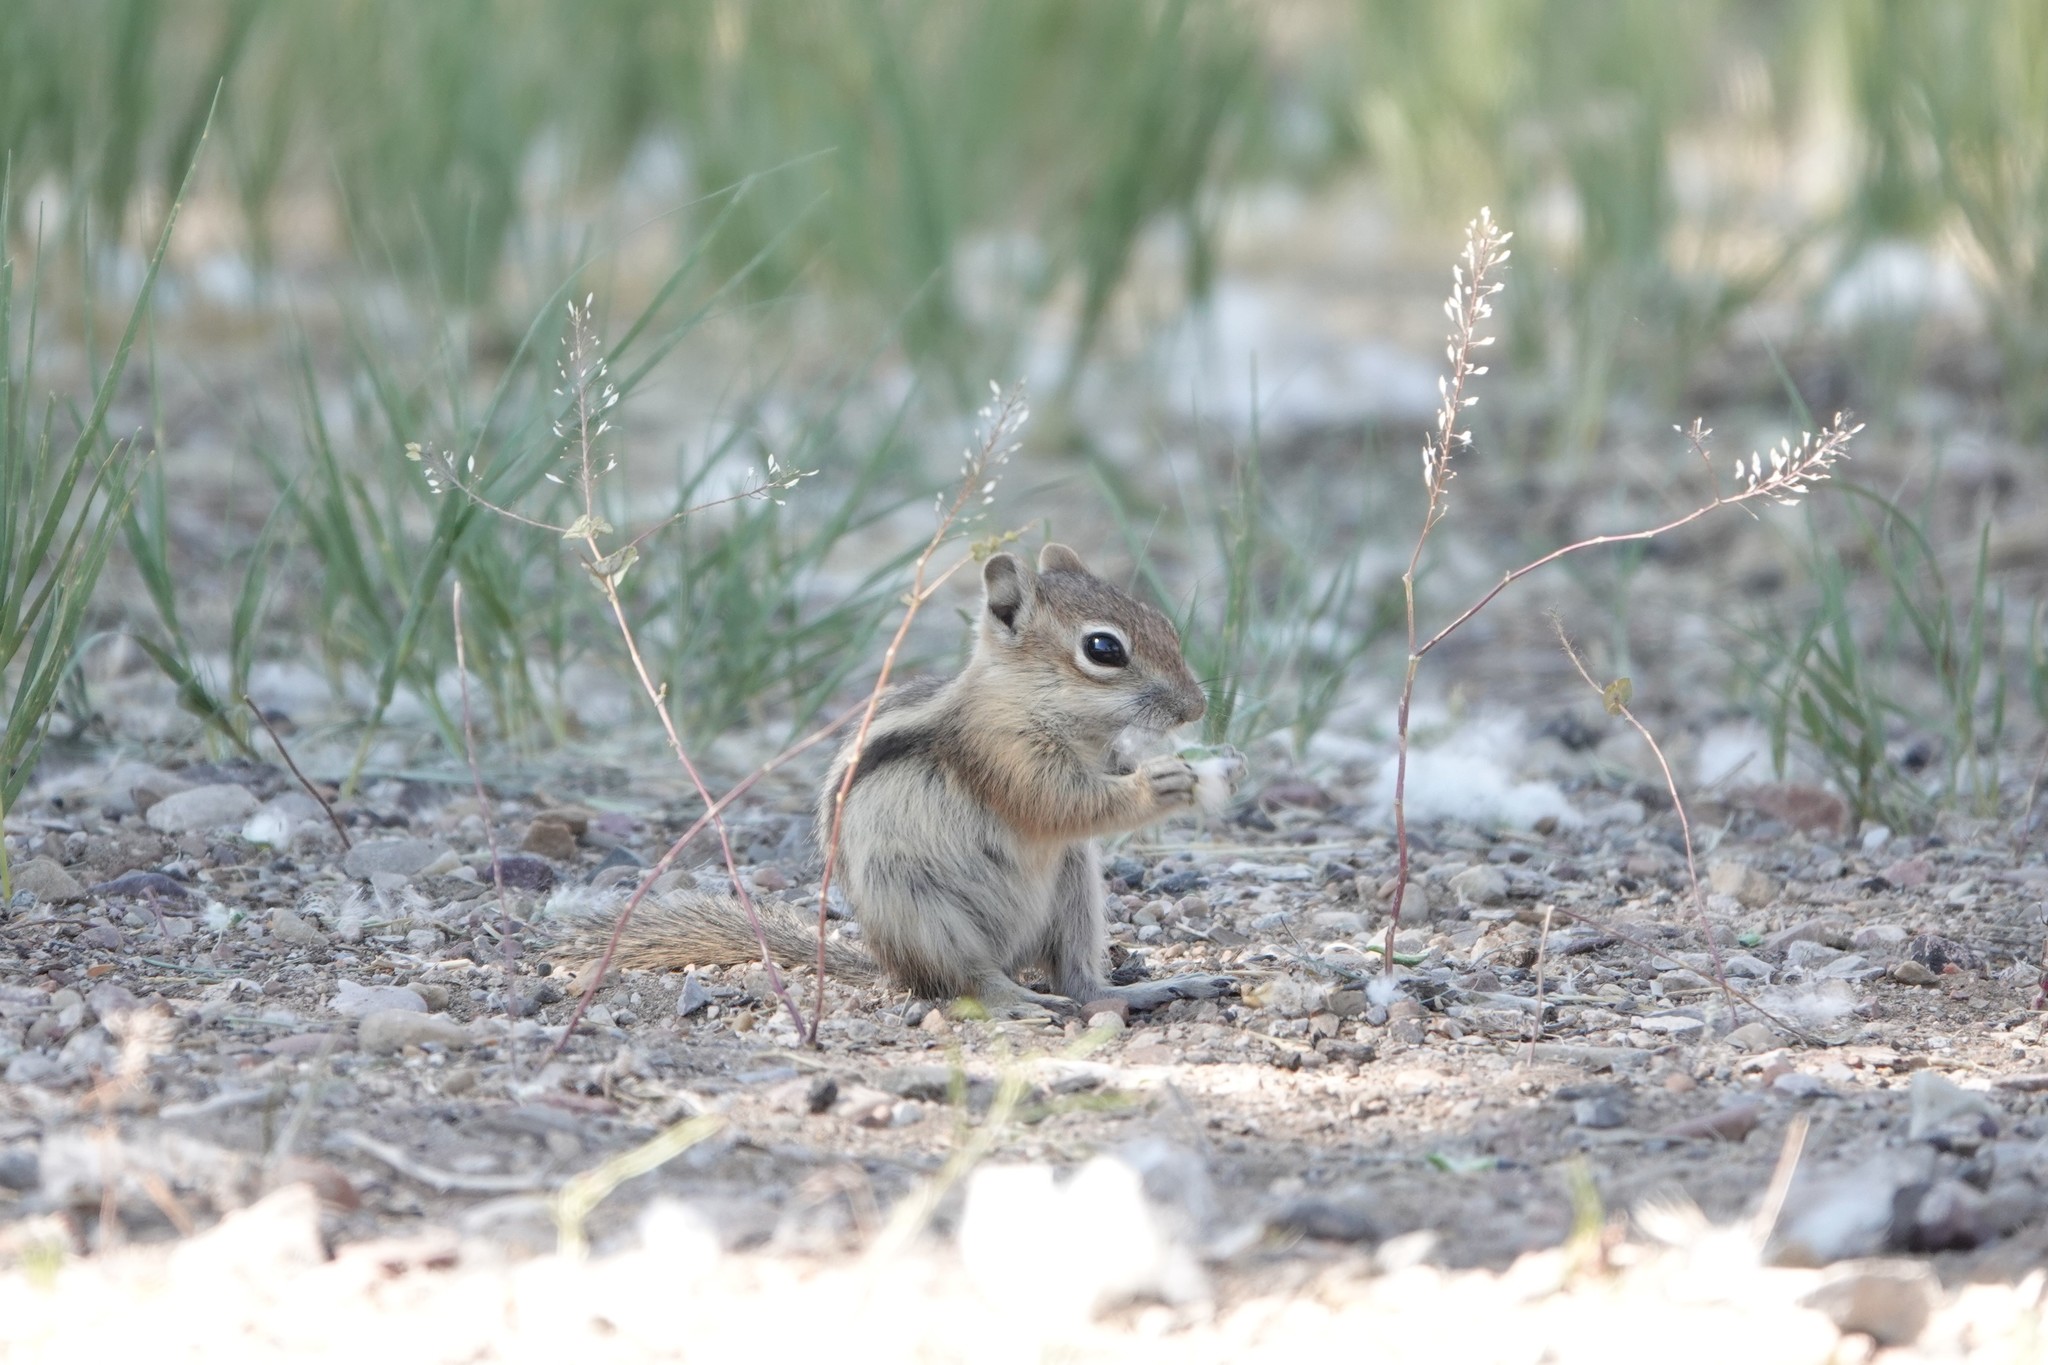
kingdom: Animalia
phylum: Chordata
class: Mammalia
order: Rodentia
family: Sciuridae
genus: Callospermophilus
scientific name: Callospermophilus lateralis
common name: Golden-mantled ground squirrel
